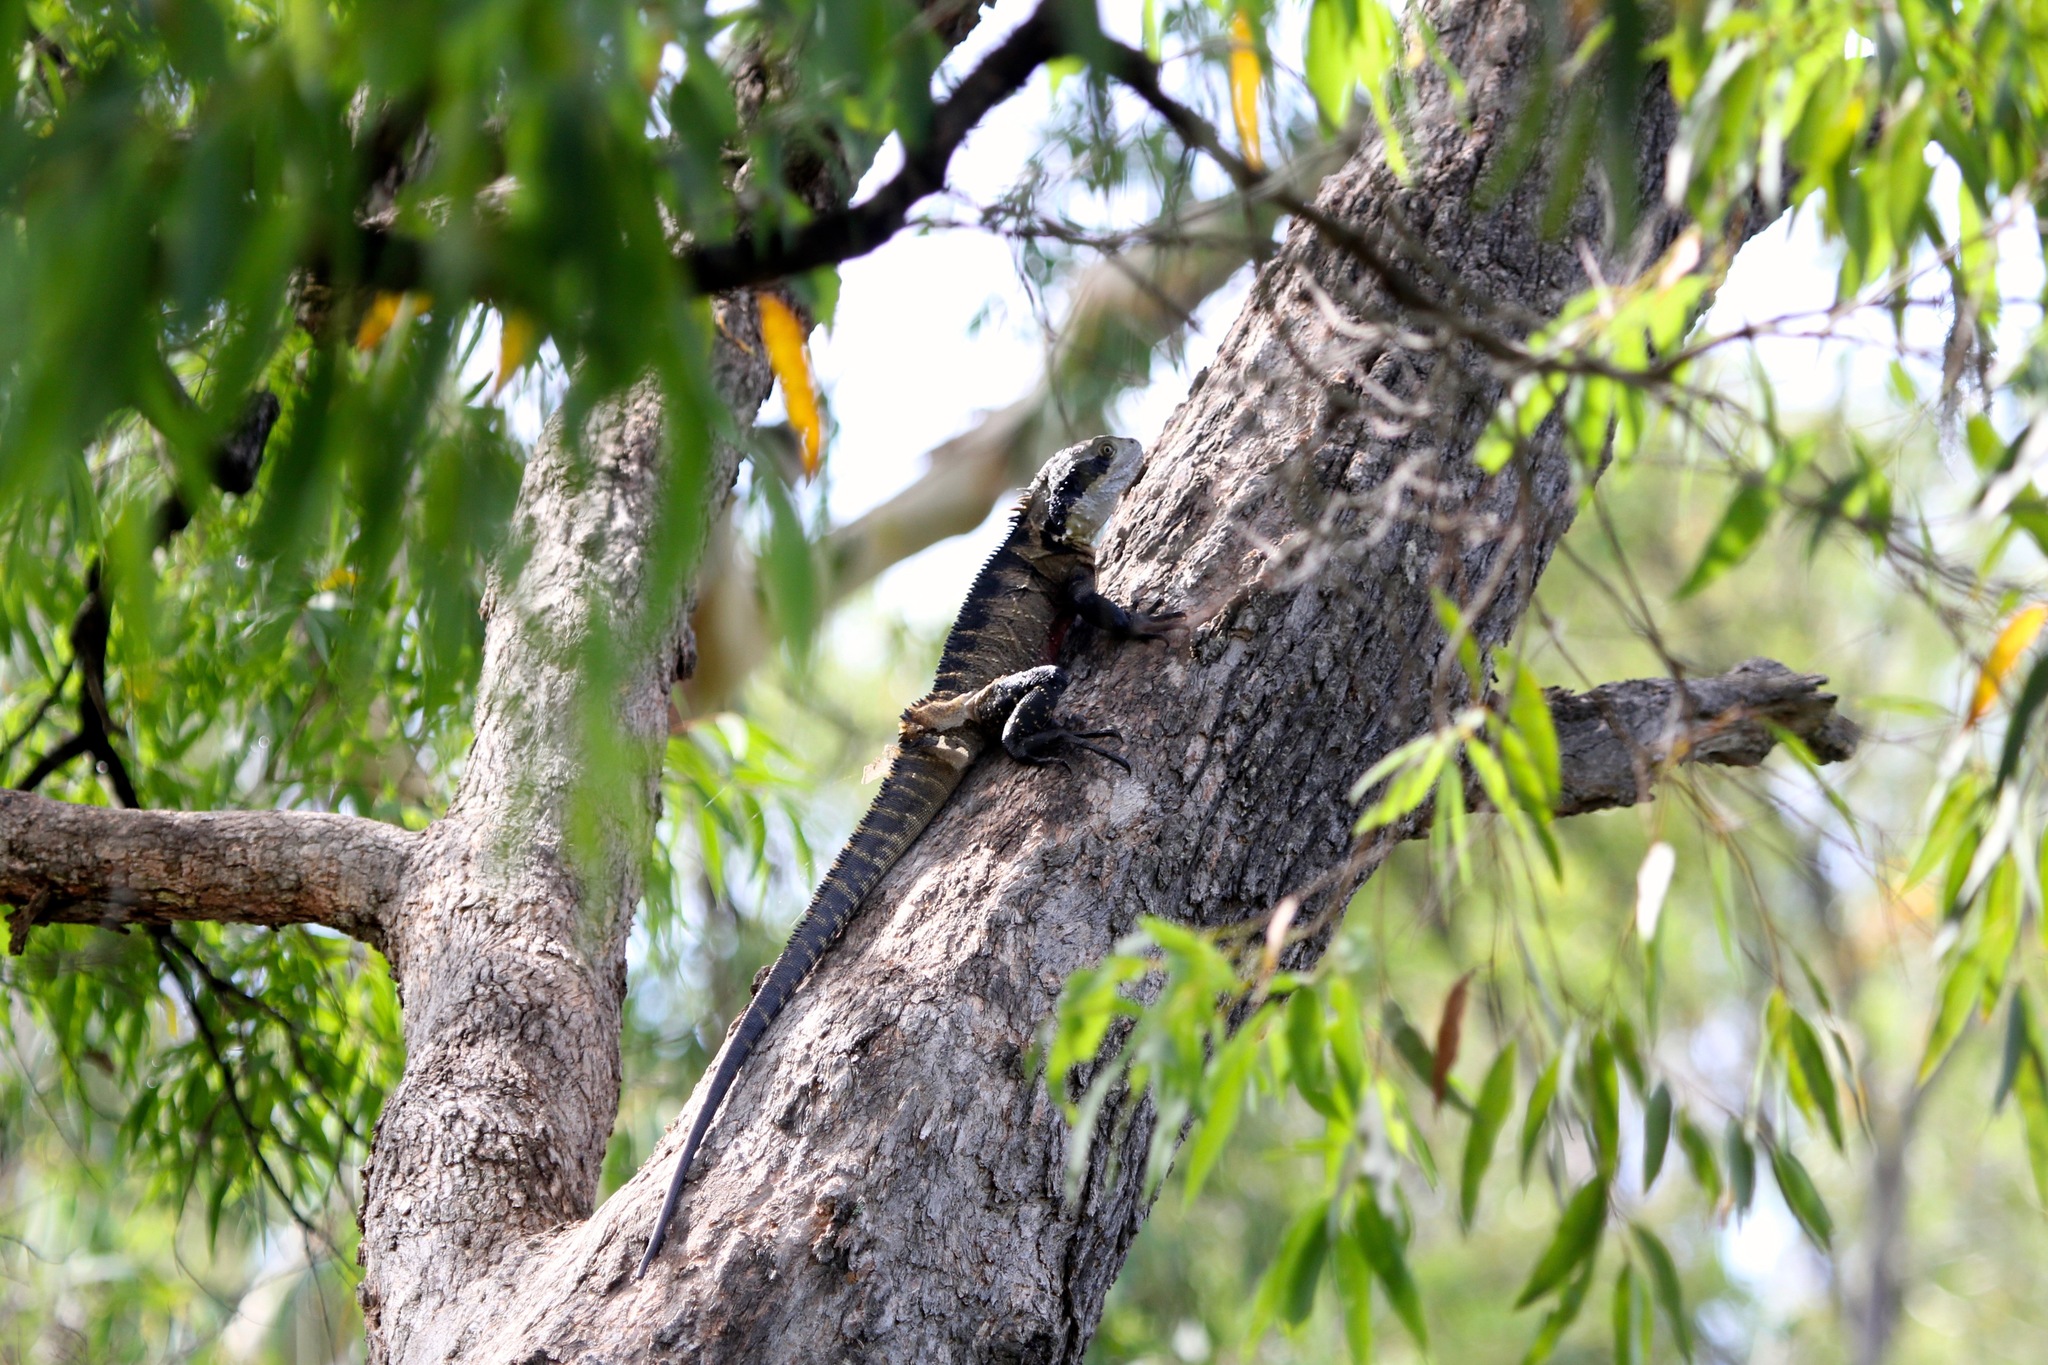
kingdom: Animalia
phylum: Chordata
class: Squamata
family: Agamidae
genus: Intellagama
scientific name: Intellagama lesueurii
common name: Eastern water dragon
